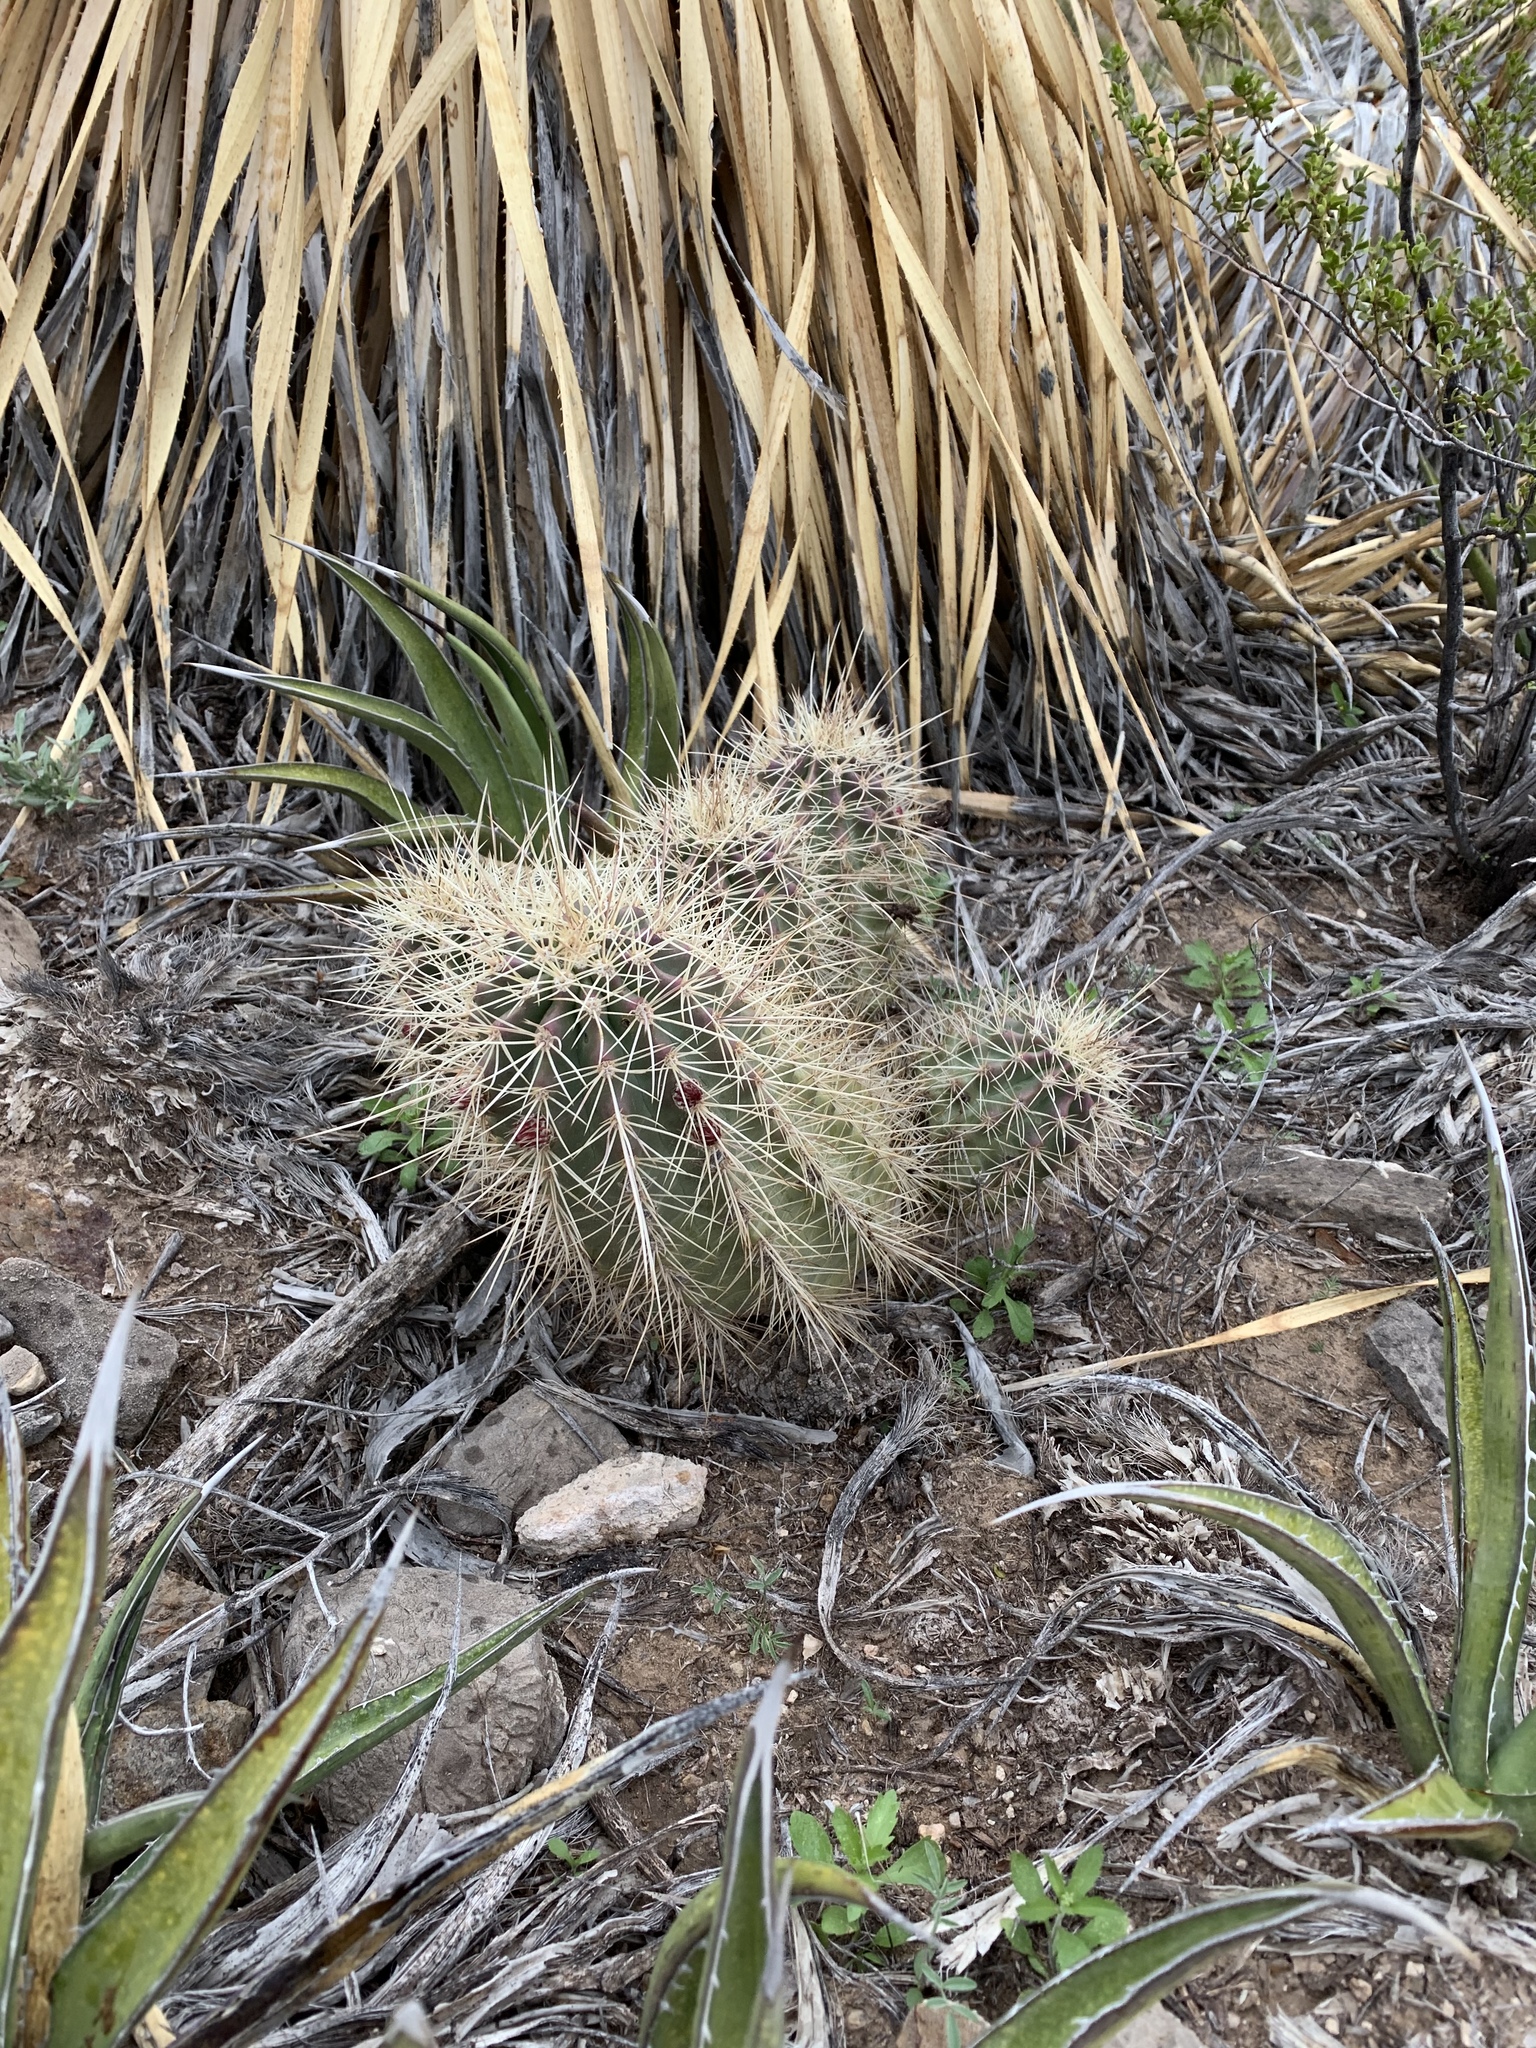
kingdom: Plantae
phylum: Tracheophyta
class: Magnoliopsida
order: Caryophyllales
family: Cactaceae
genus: Echinocereus
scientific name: Echinocereus coccineus
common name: Scarlet hedgehog cactus
